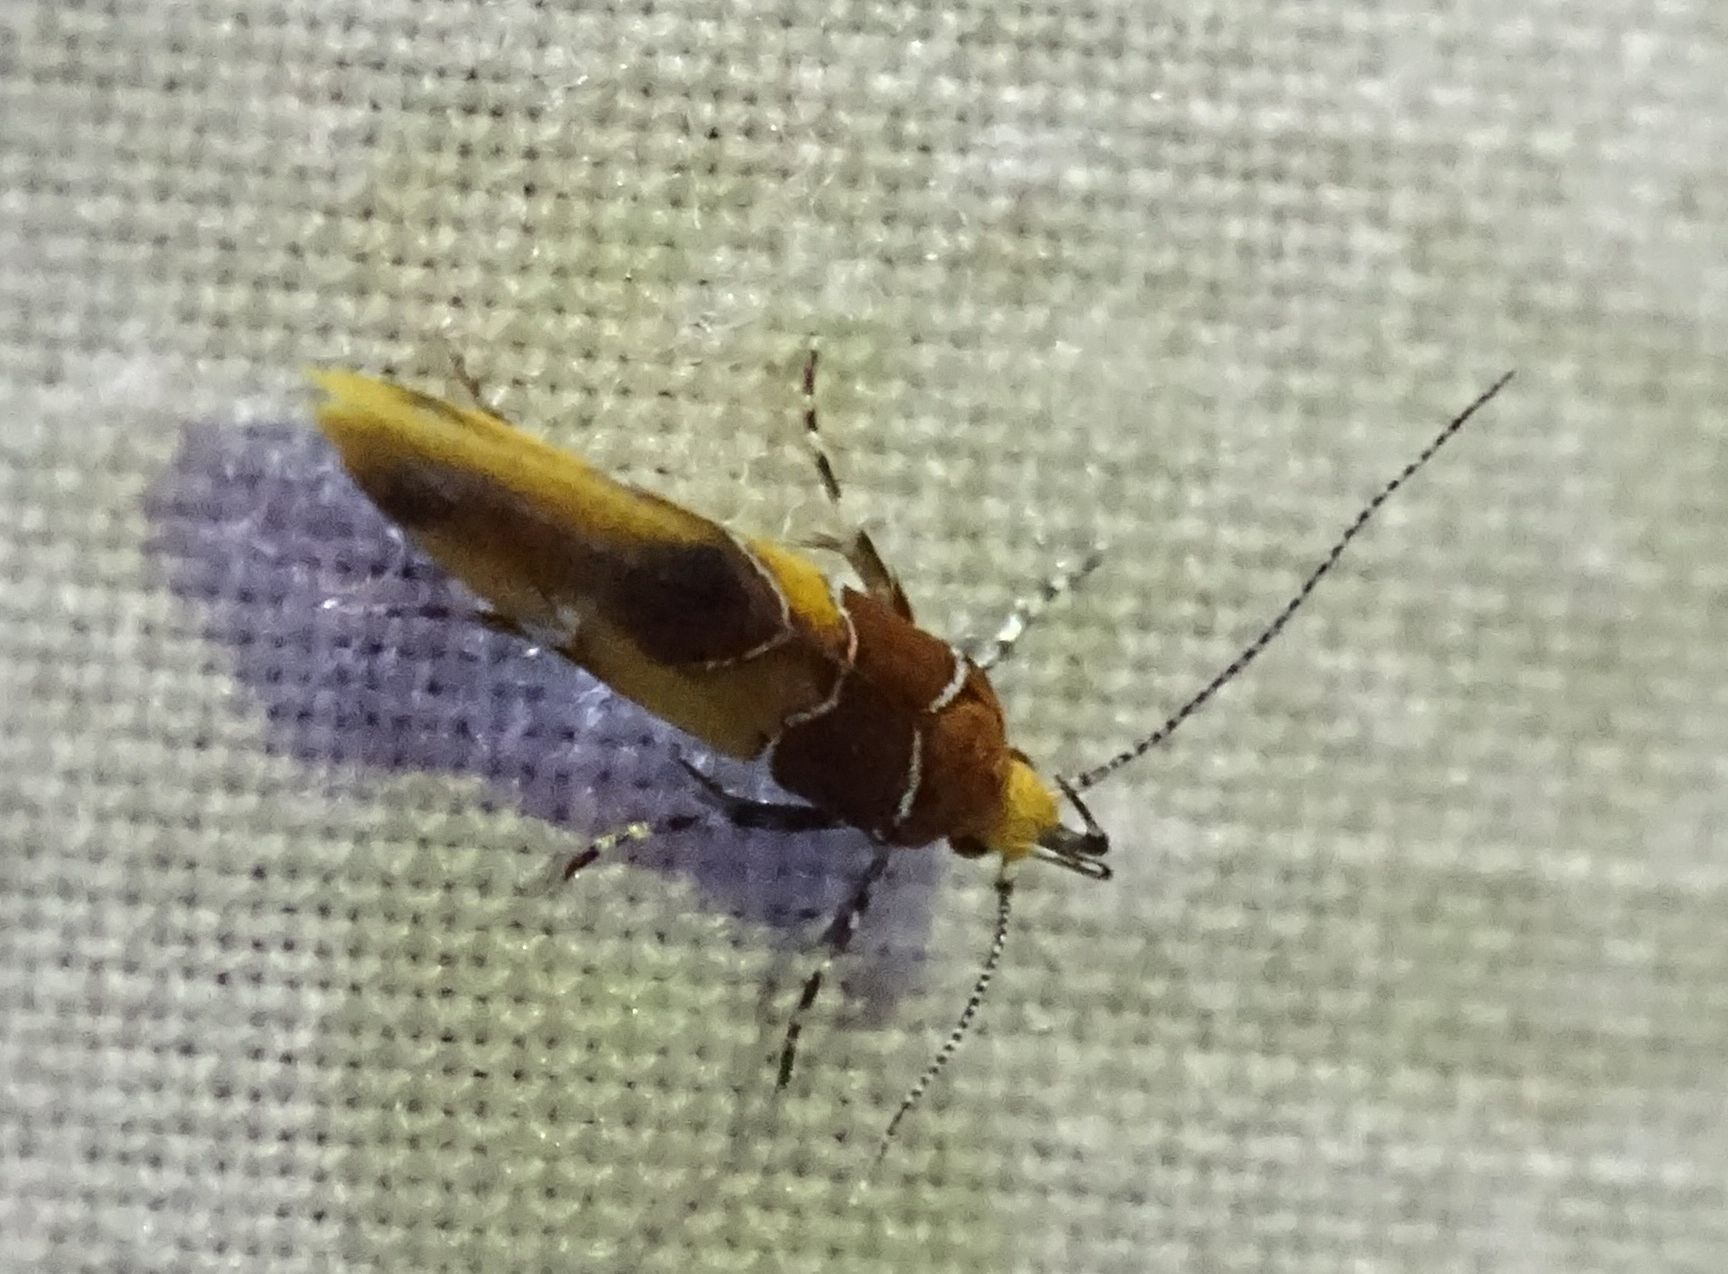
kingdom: Animalia
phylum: Arthropoda
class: Insecta
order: Lepidoptera
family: Oecophoridae
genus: Callima
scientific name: Callima argenticinctella
